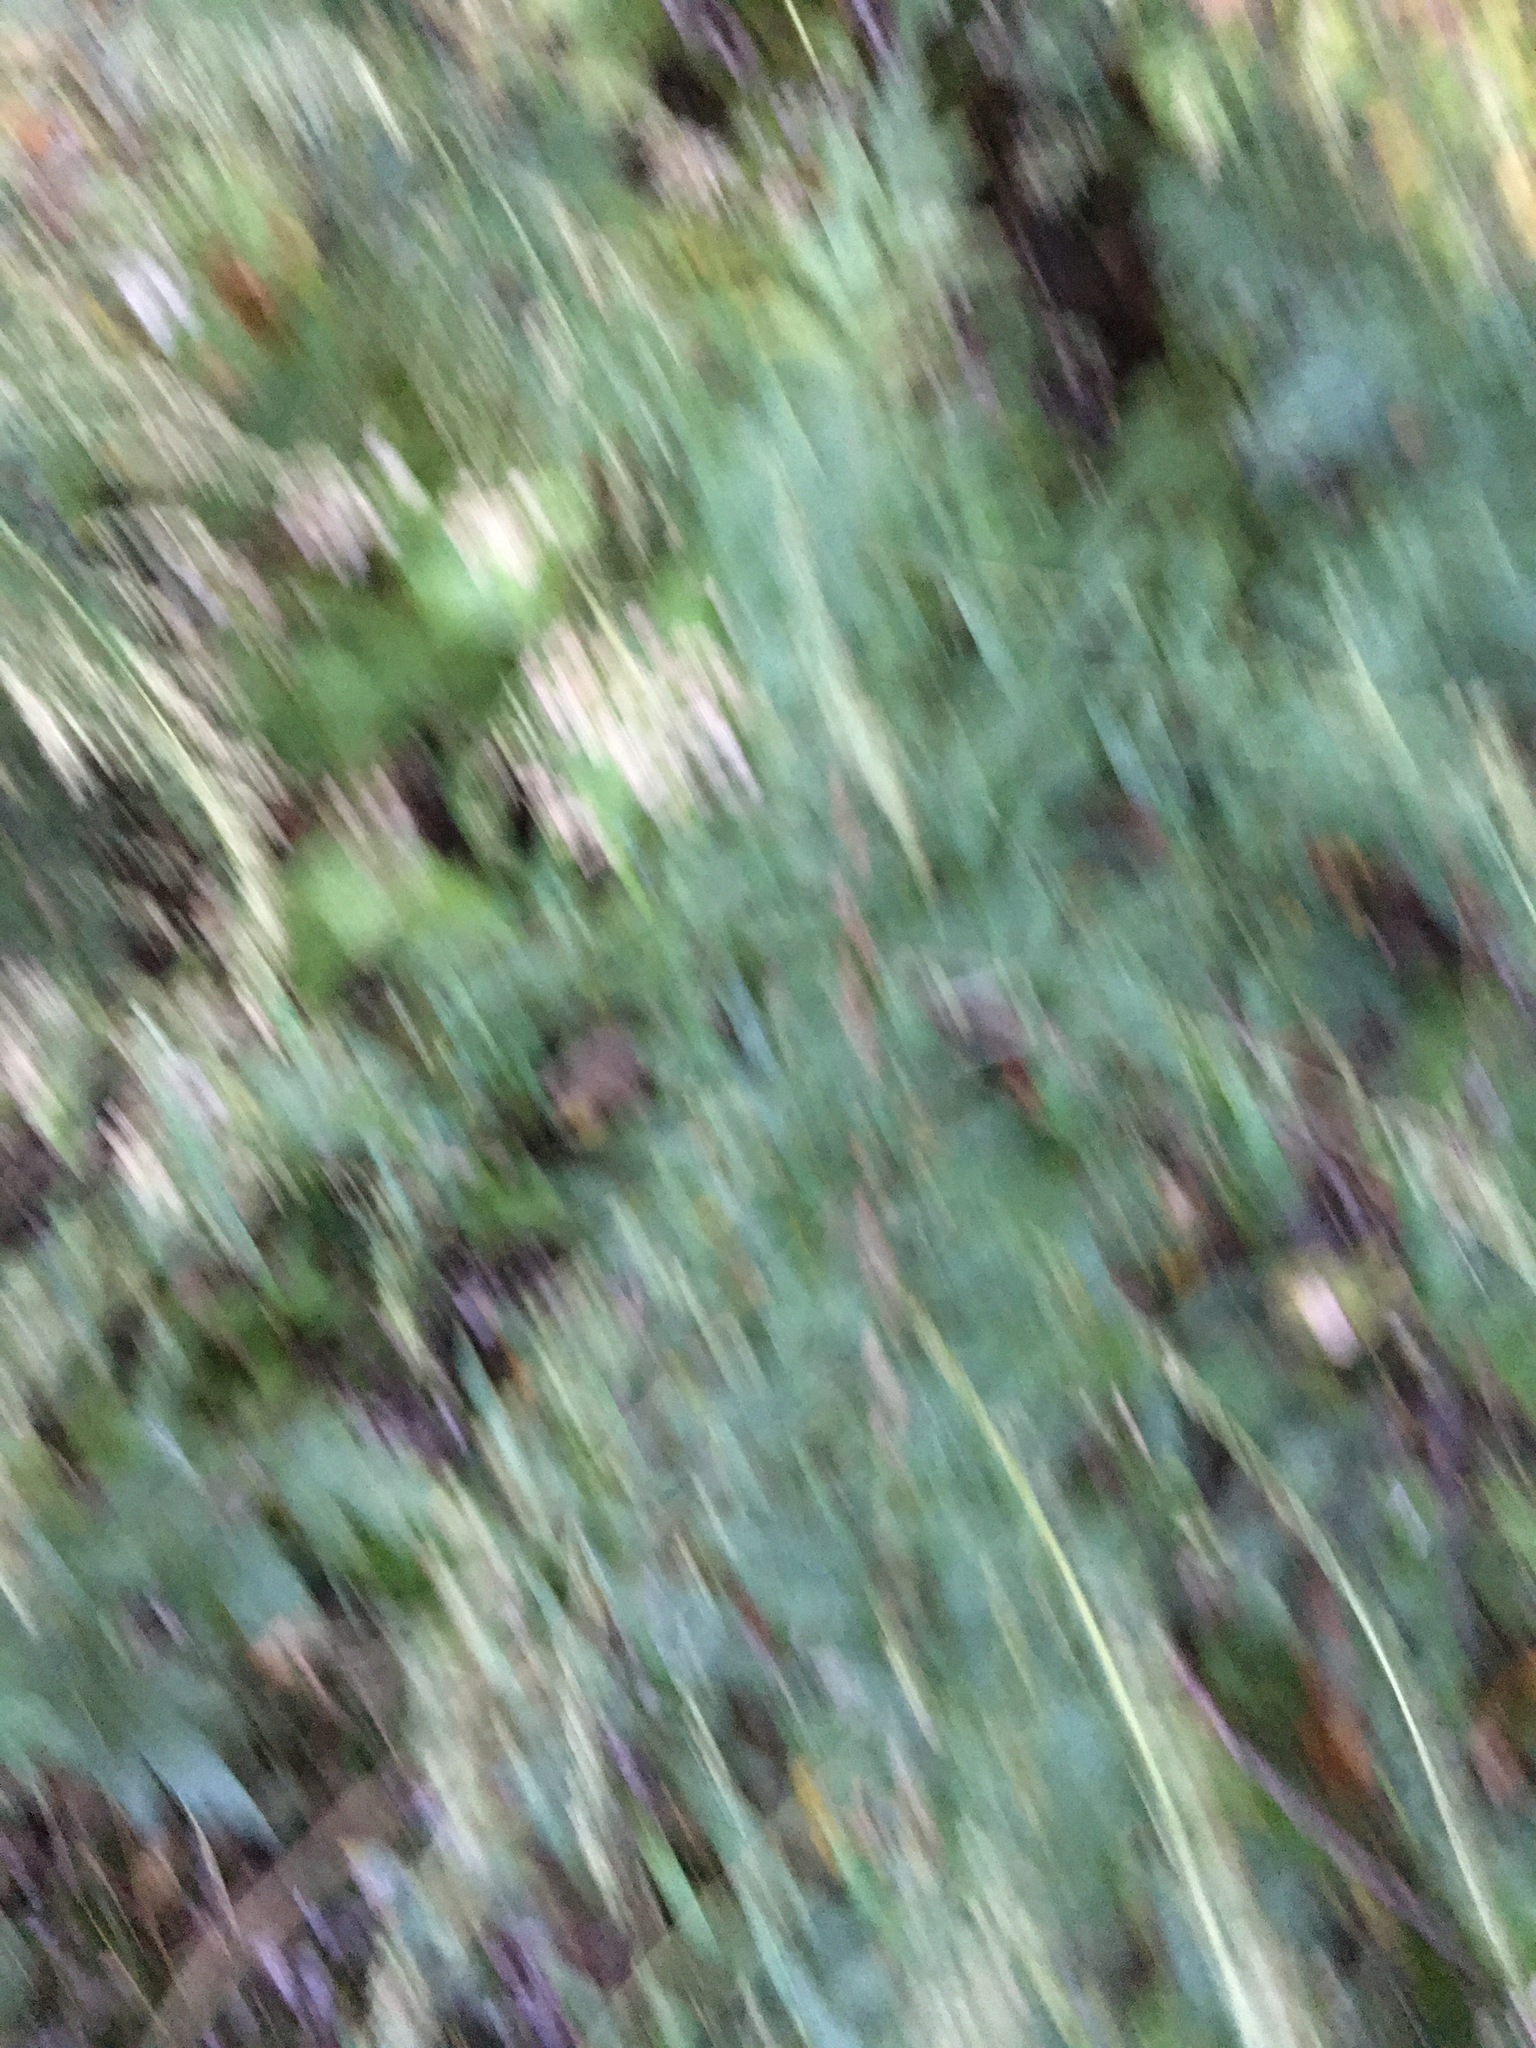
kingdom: Plantae
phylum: Tracheophyta
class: Magnoliopsida
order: Asterales
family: Asteraceae
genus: Artemisia
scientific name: Artemisia vulgaris
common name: Mugwort
